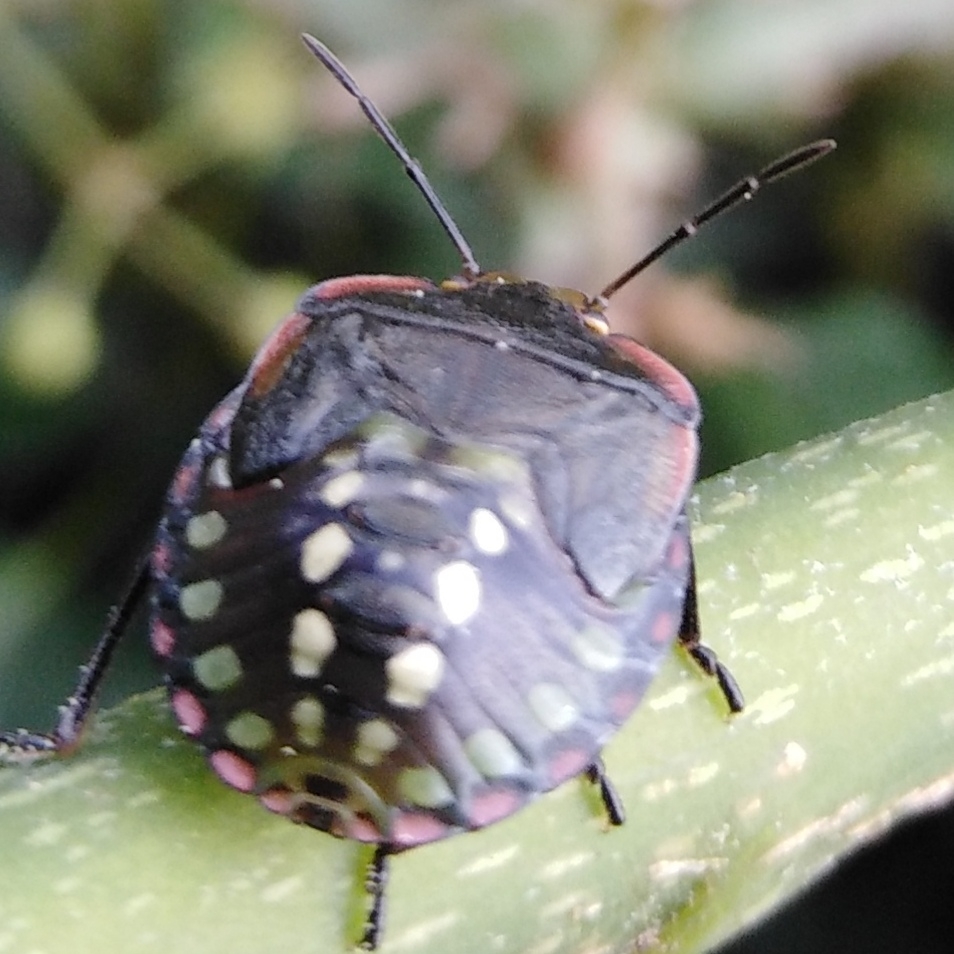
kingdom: Animalia
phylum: Arthropoda
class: Insecta
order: Hemiptera
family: Pentatomidae
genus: Nezara
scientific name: Nezara viridula
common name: Southern green stink bug
